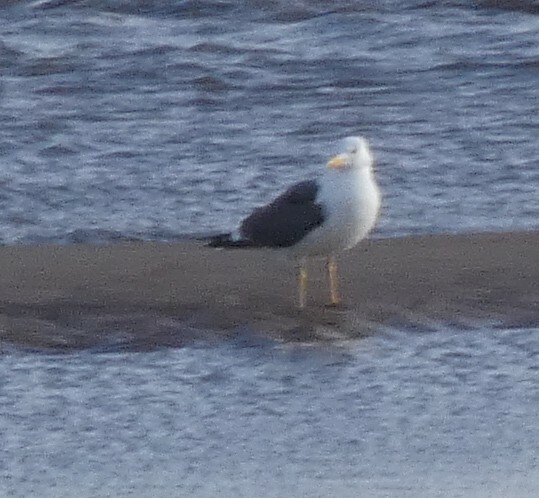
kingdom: Animalia
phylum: Chordata
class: Aves
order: Charadriiformes
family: Laridae
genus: Larus
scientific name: Larus fuscus
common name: Lesser black-backed gull
